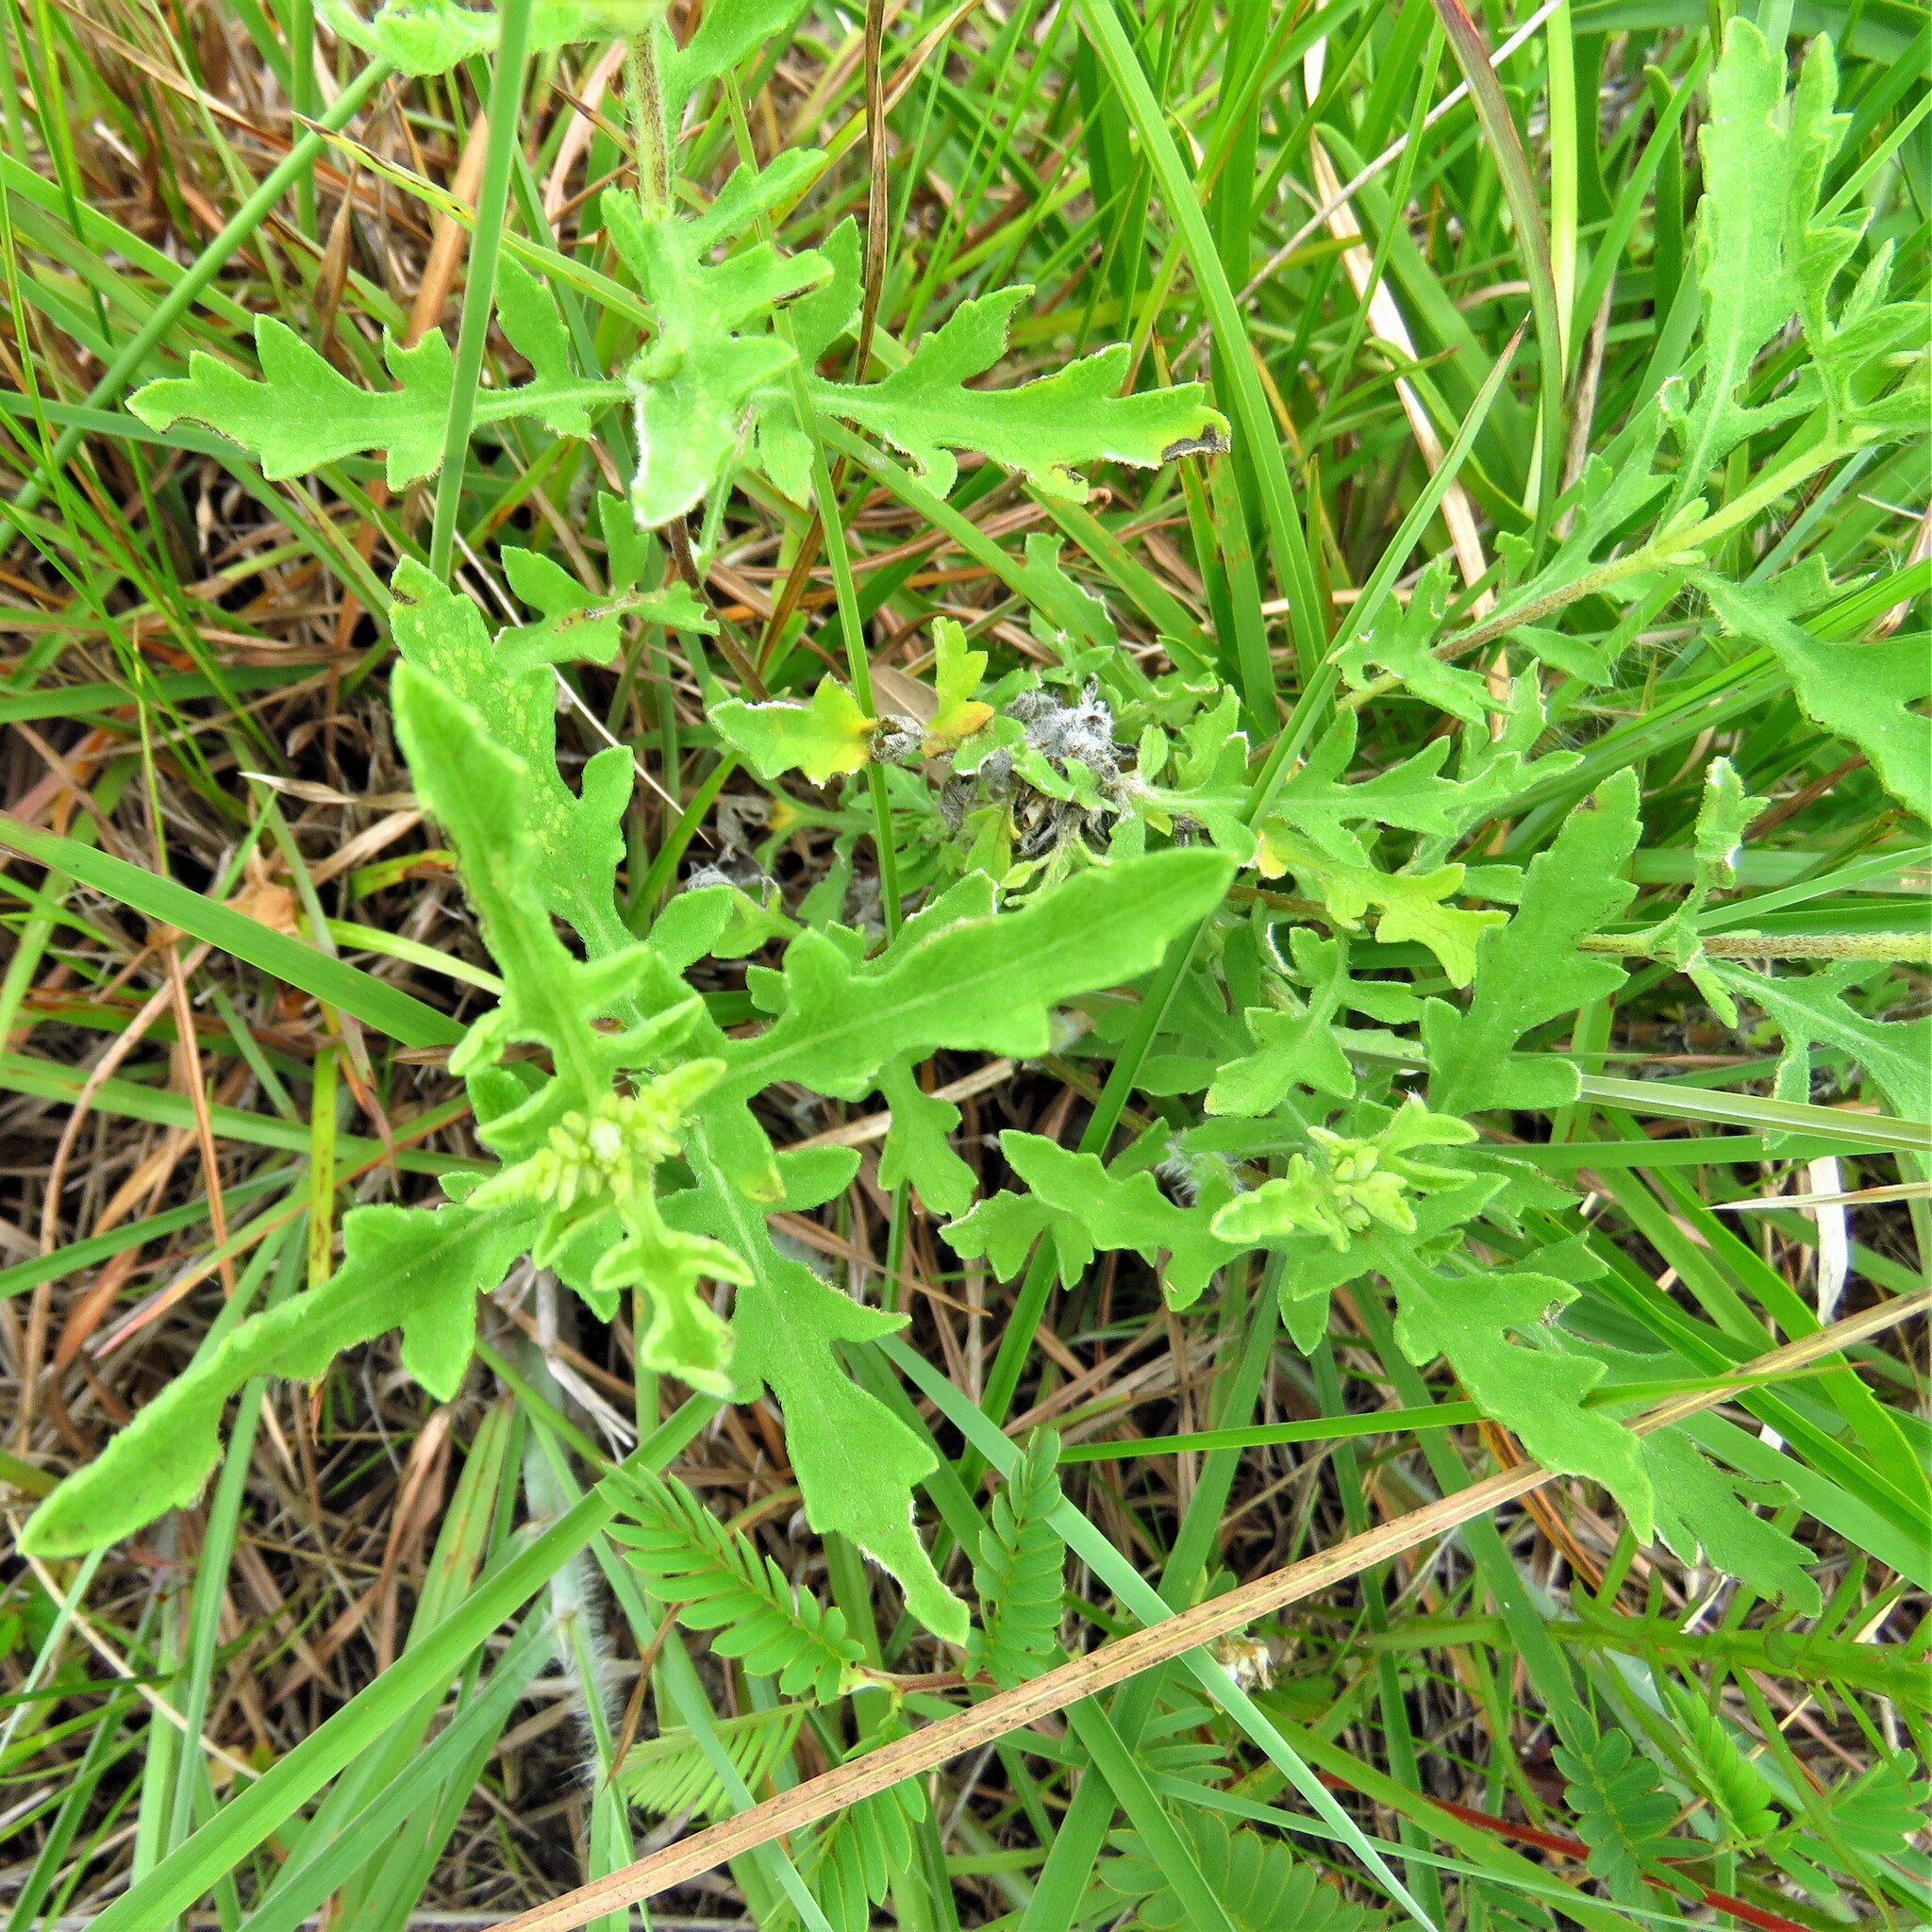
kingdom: Plantae
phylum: Tracheophyta
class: Magnoliopsida
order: Asterales
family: Asteraceae
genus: Ambrosia
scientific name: Ambrosia psilostachya
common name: Perennial ragweed
